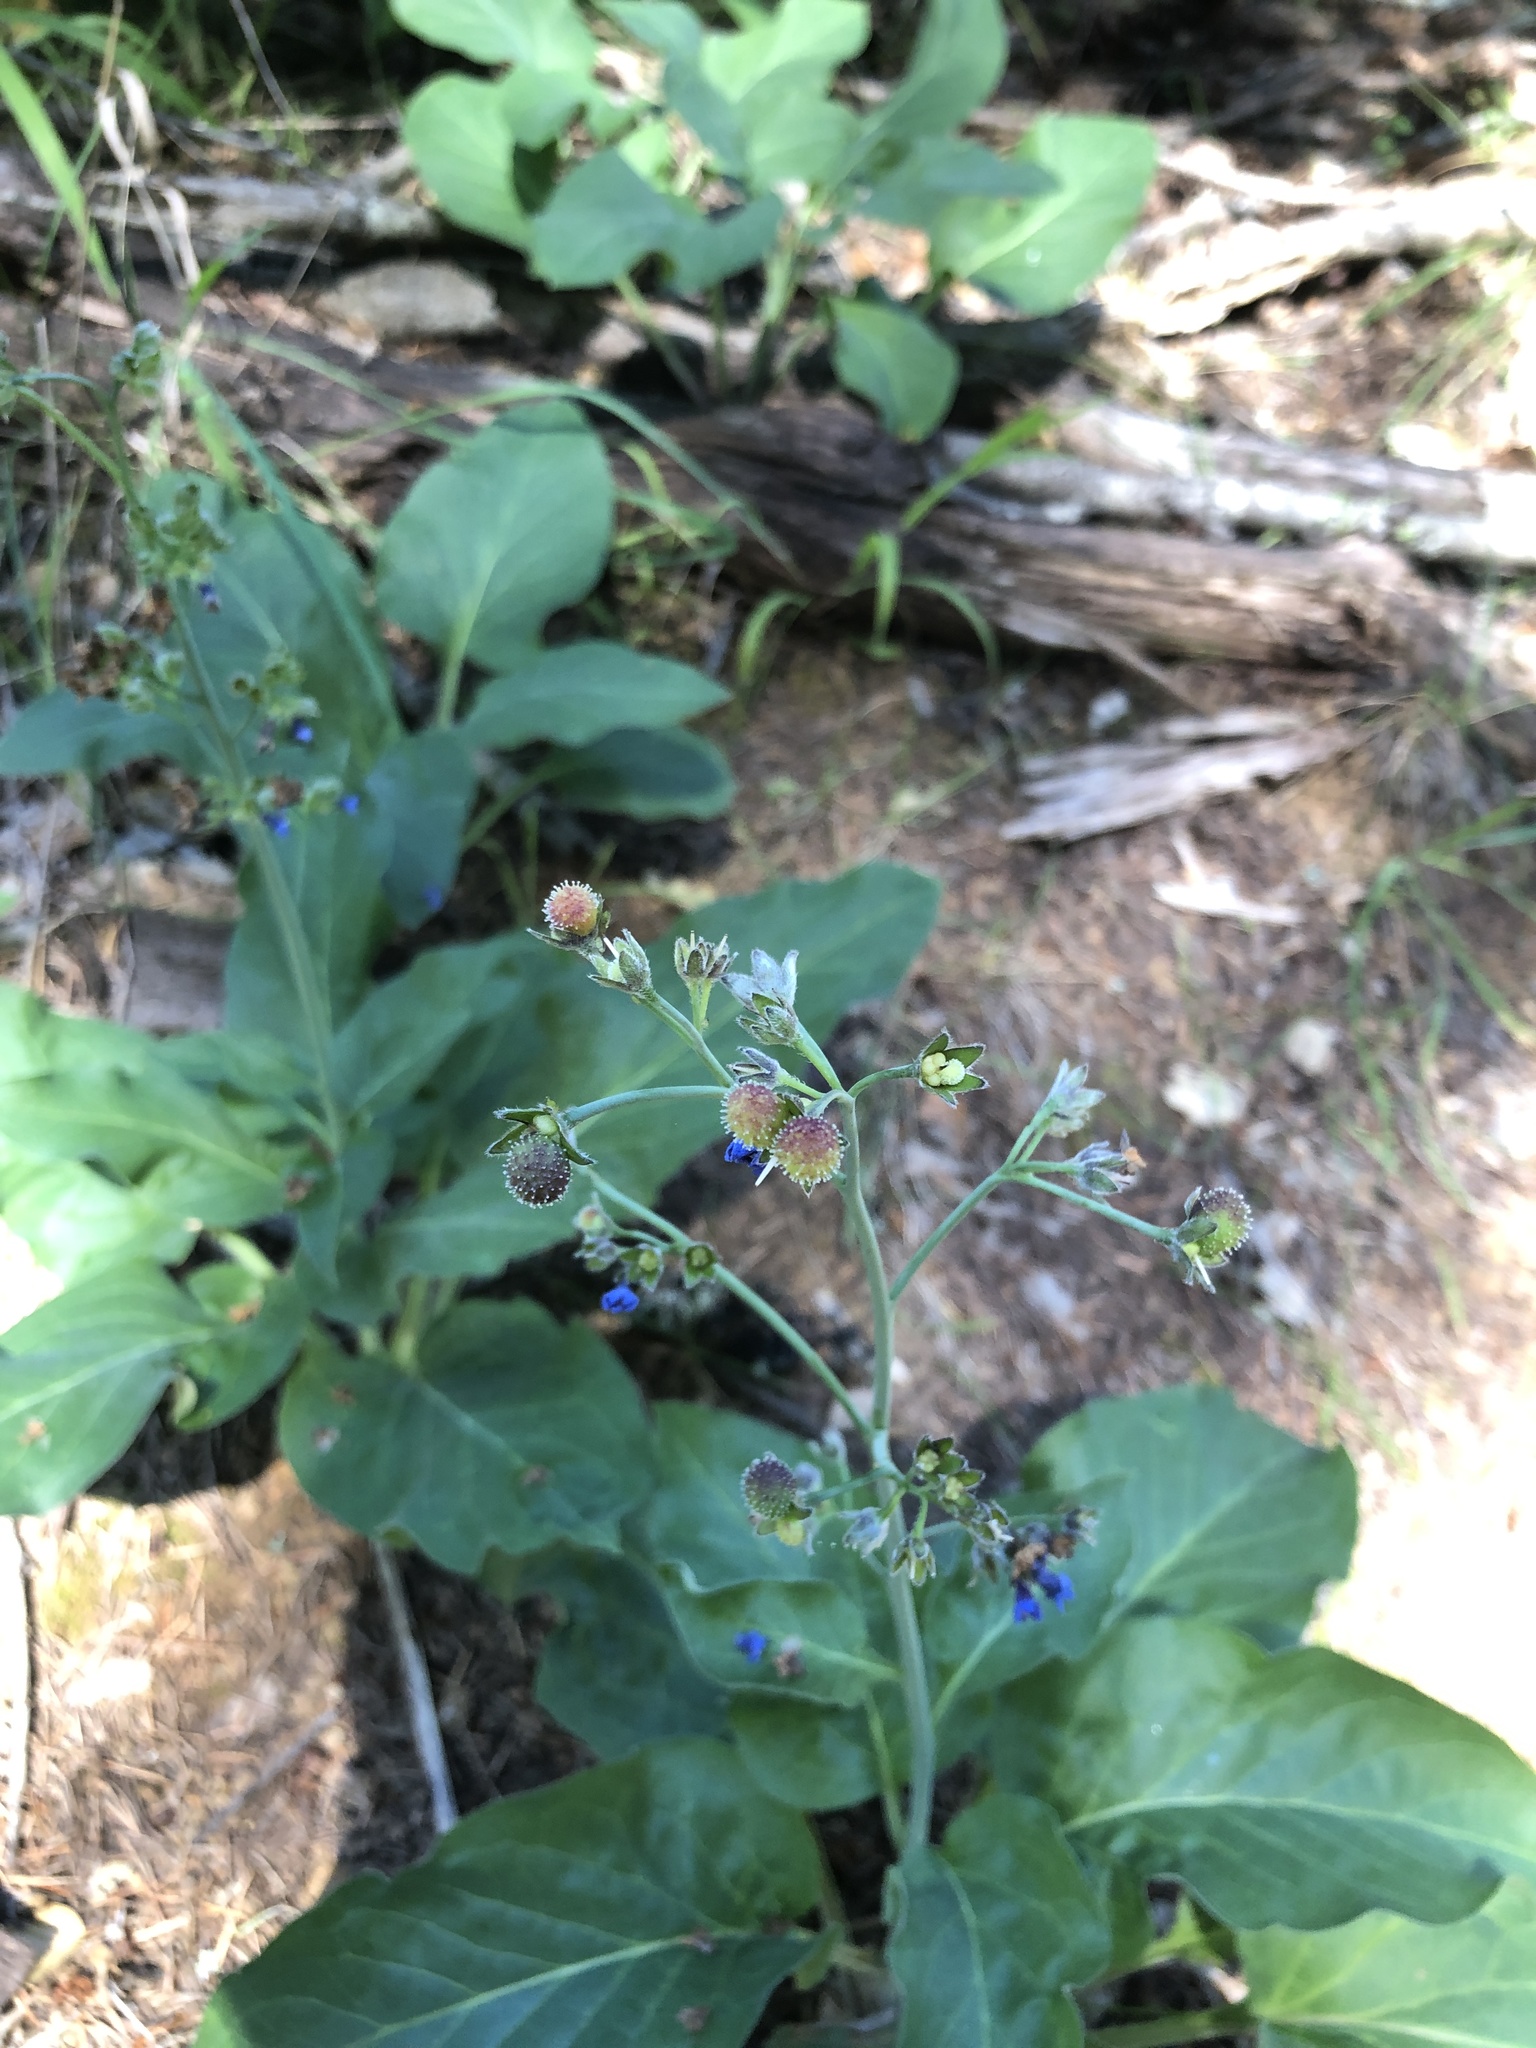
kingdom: Plantae
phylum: Tracheophyta
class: Magnoliopsida
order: Boraginales
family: Boraginaceae
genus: Adelinia
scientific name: Adelinia grande
